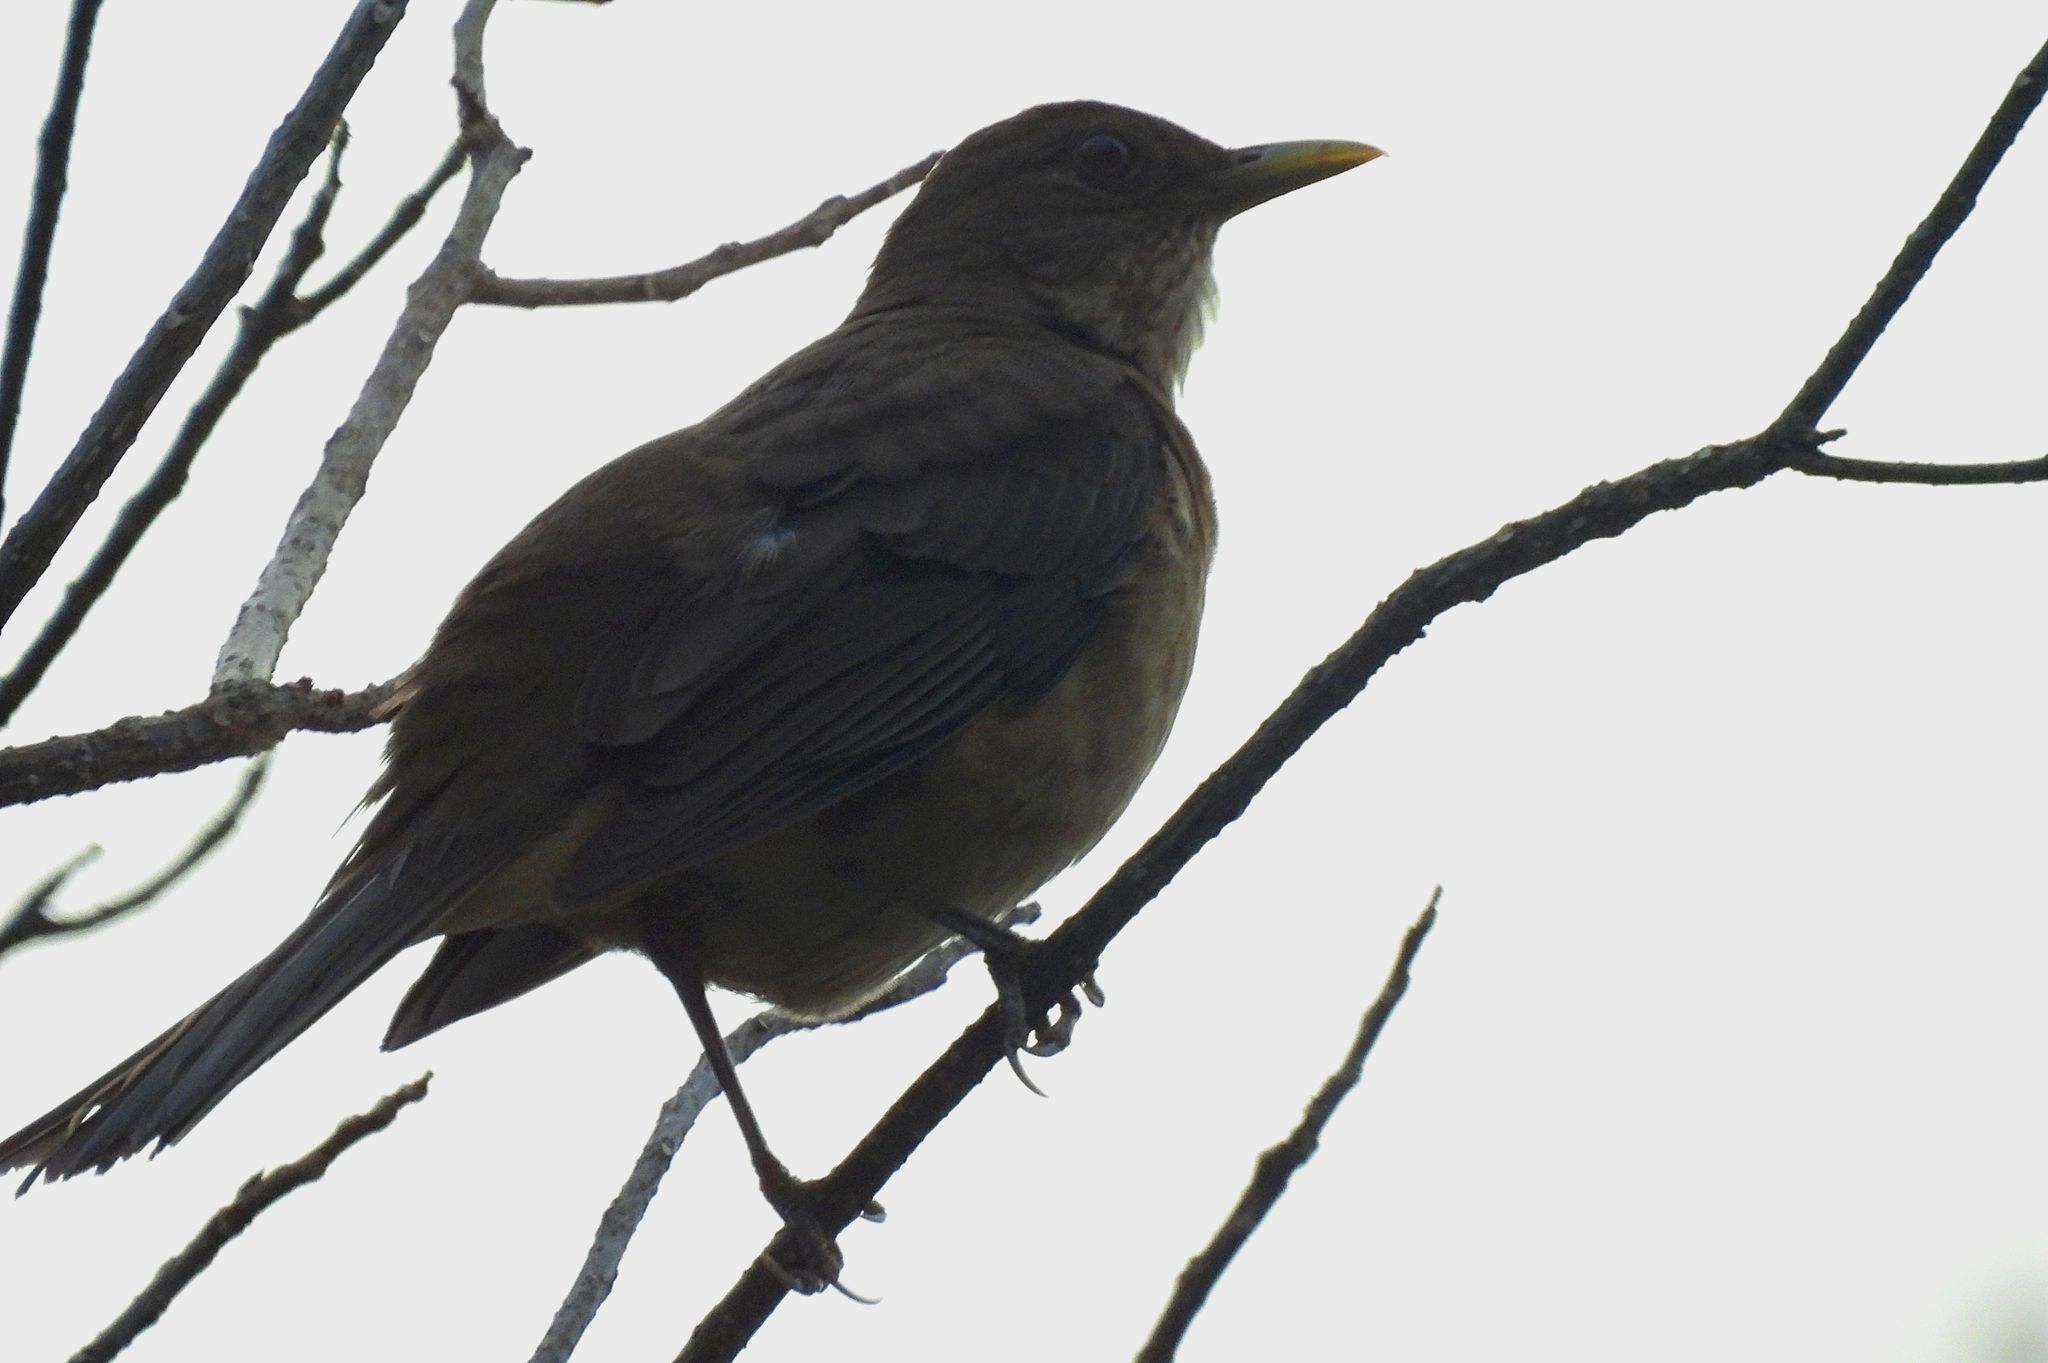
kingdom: Animalia
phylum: Chordata
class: Aves
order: Passeriformes
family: Turdidae
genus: Turdus
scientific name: Turdus grayi
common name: Clay-colored thrush
